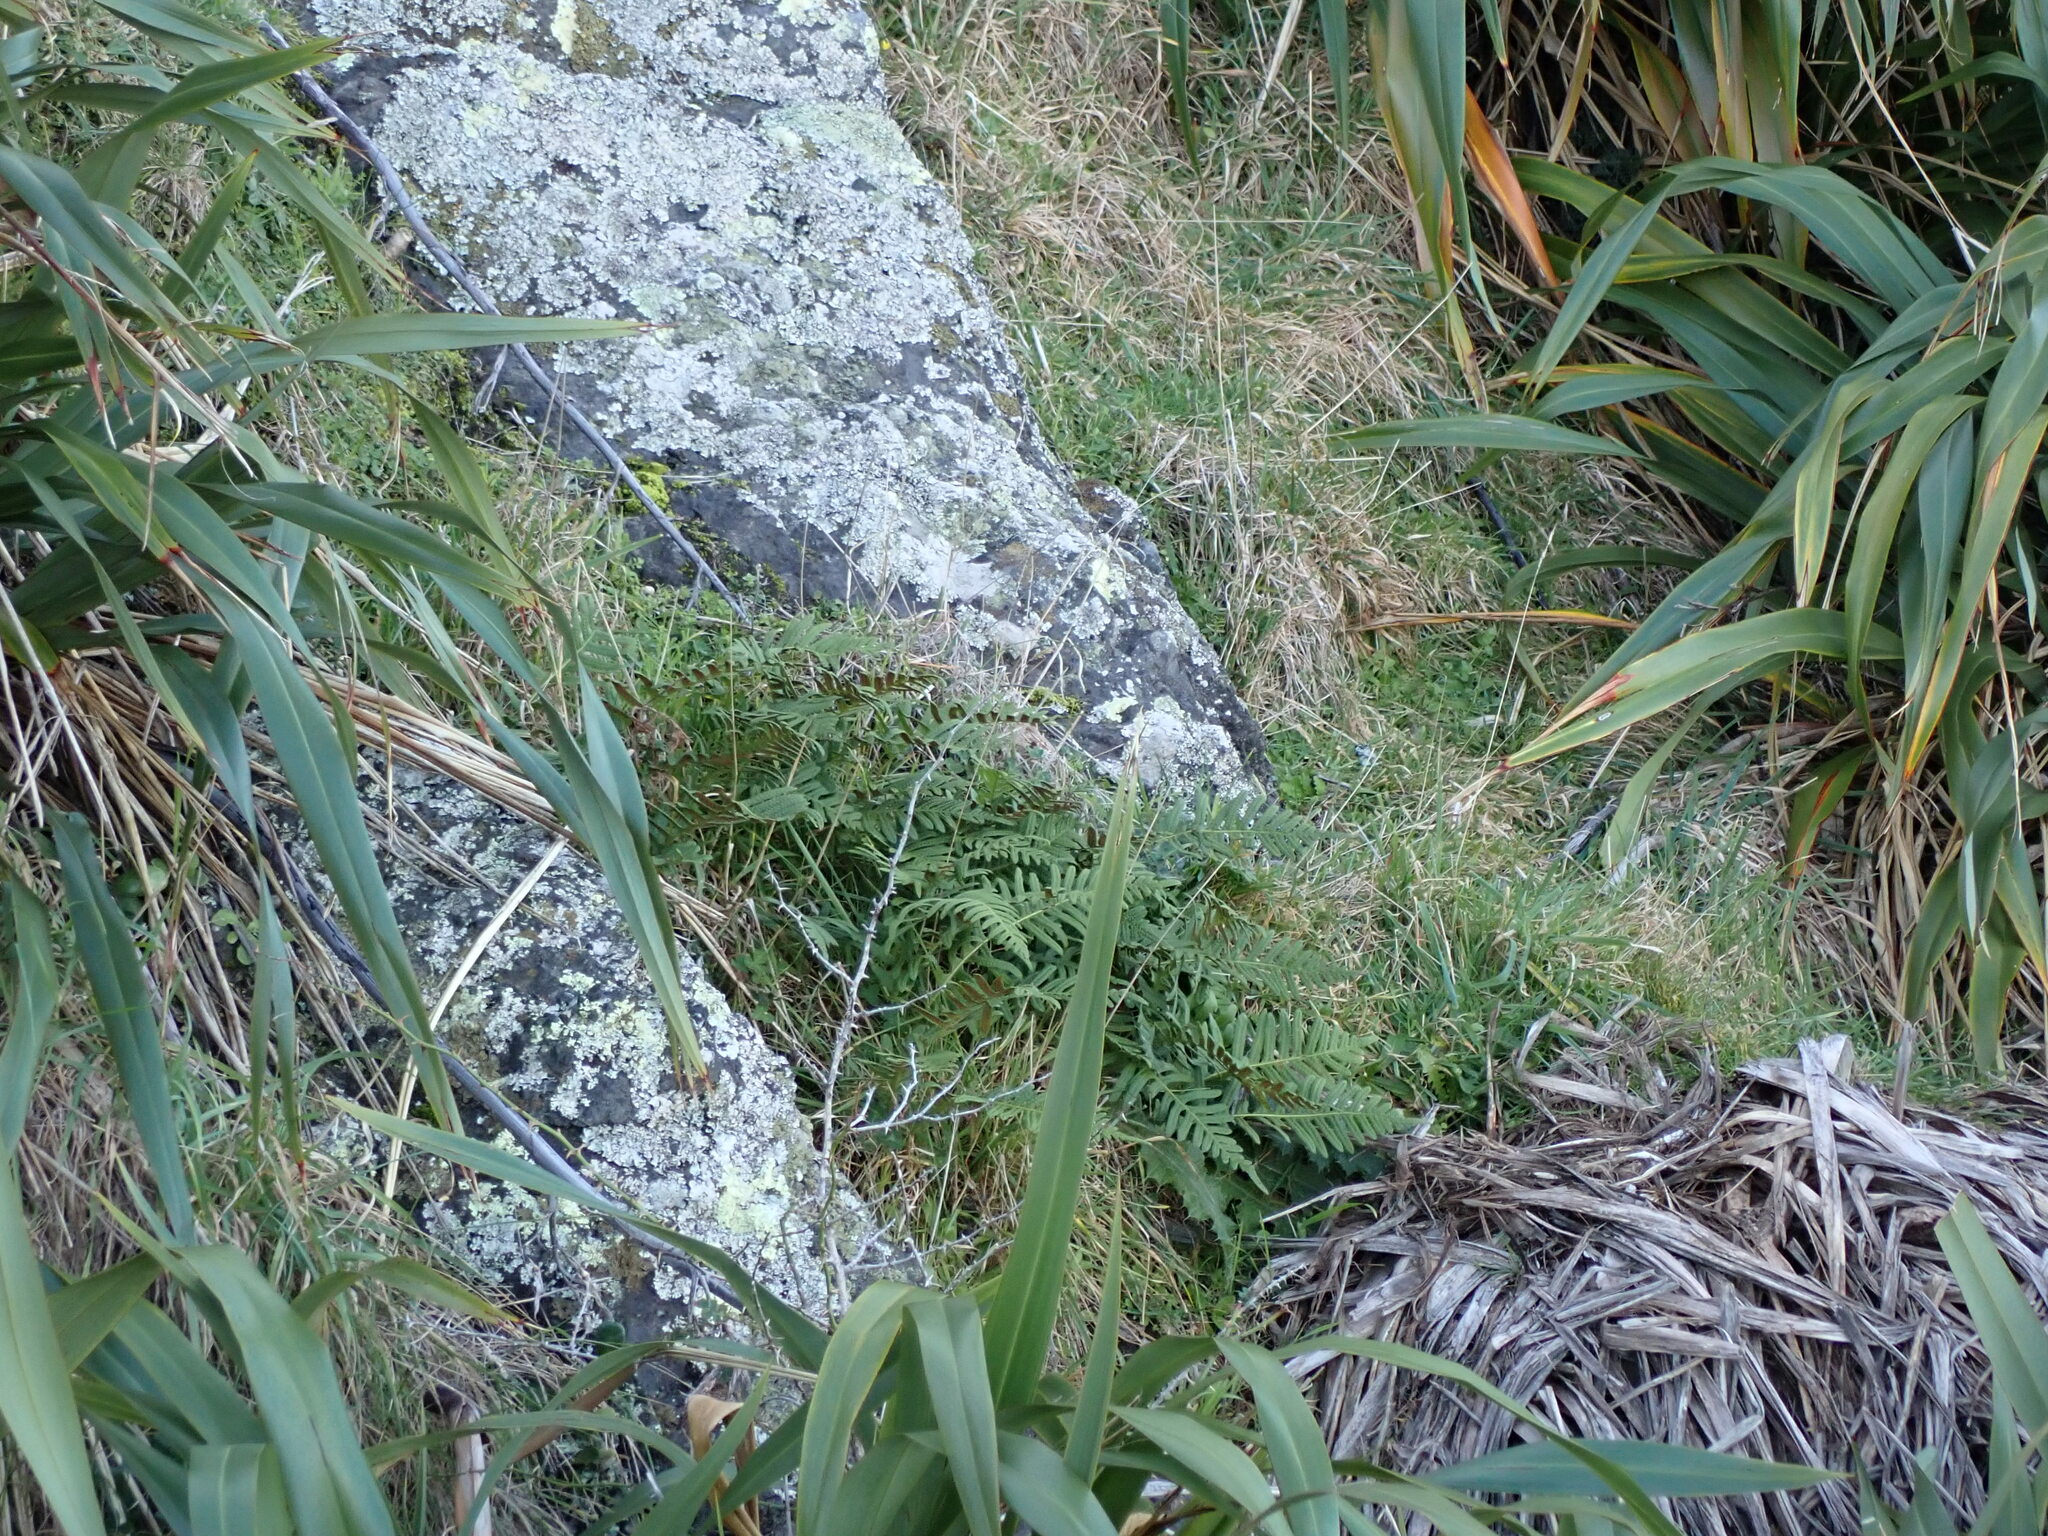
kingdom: Plantae
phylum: Tracheophyta
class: Polypodiopsida
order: Polypodiales
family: Polypodiaceae
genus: Polypodium
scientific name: Polypodium vulgare
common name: Common polypody
